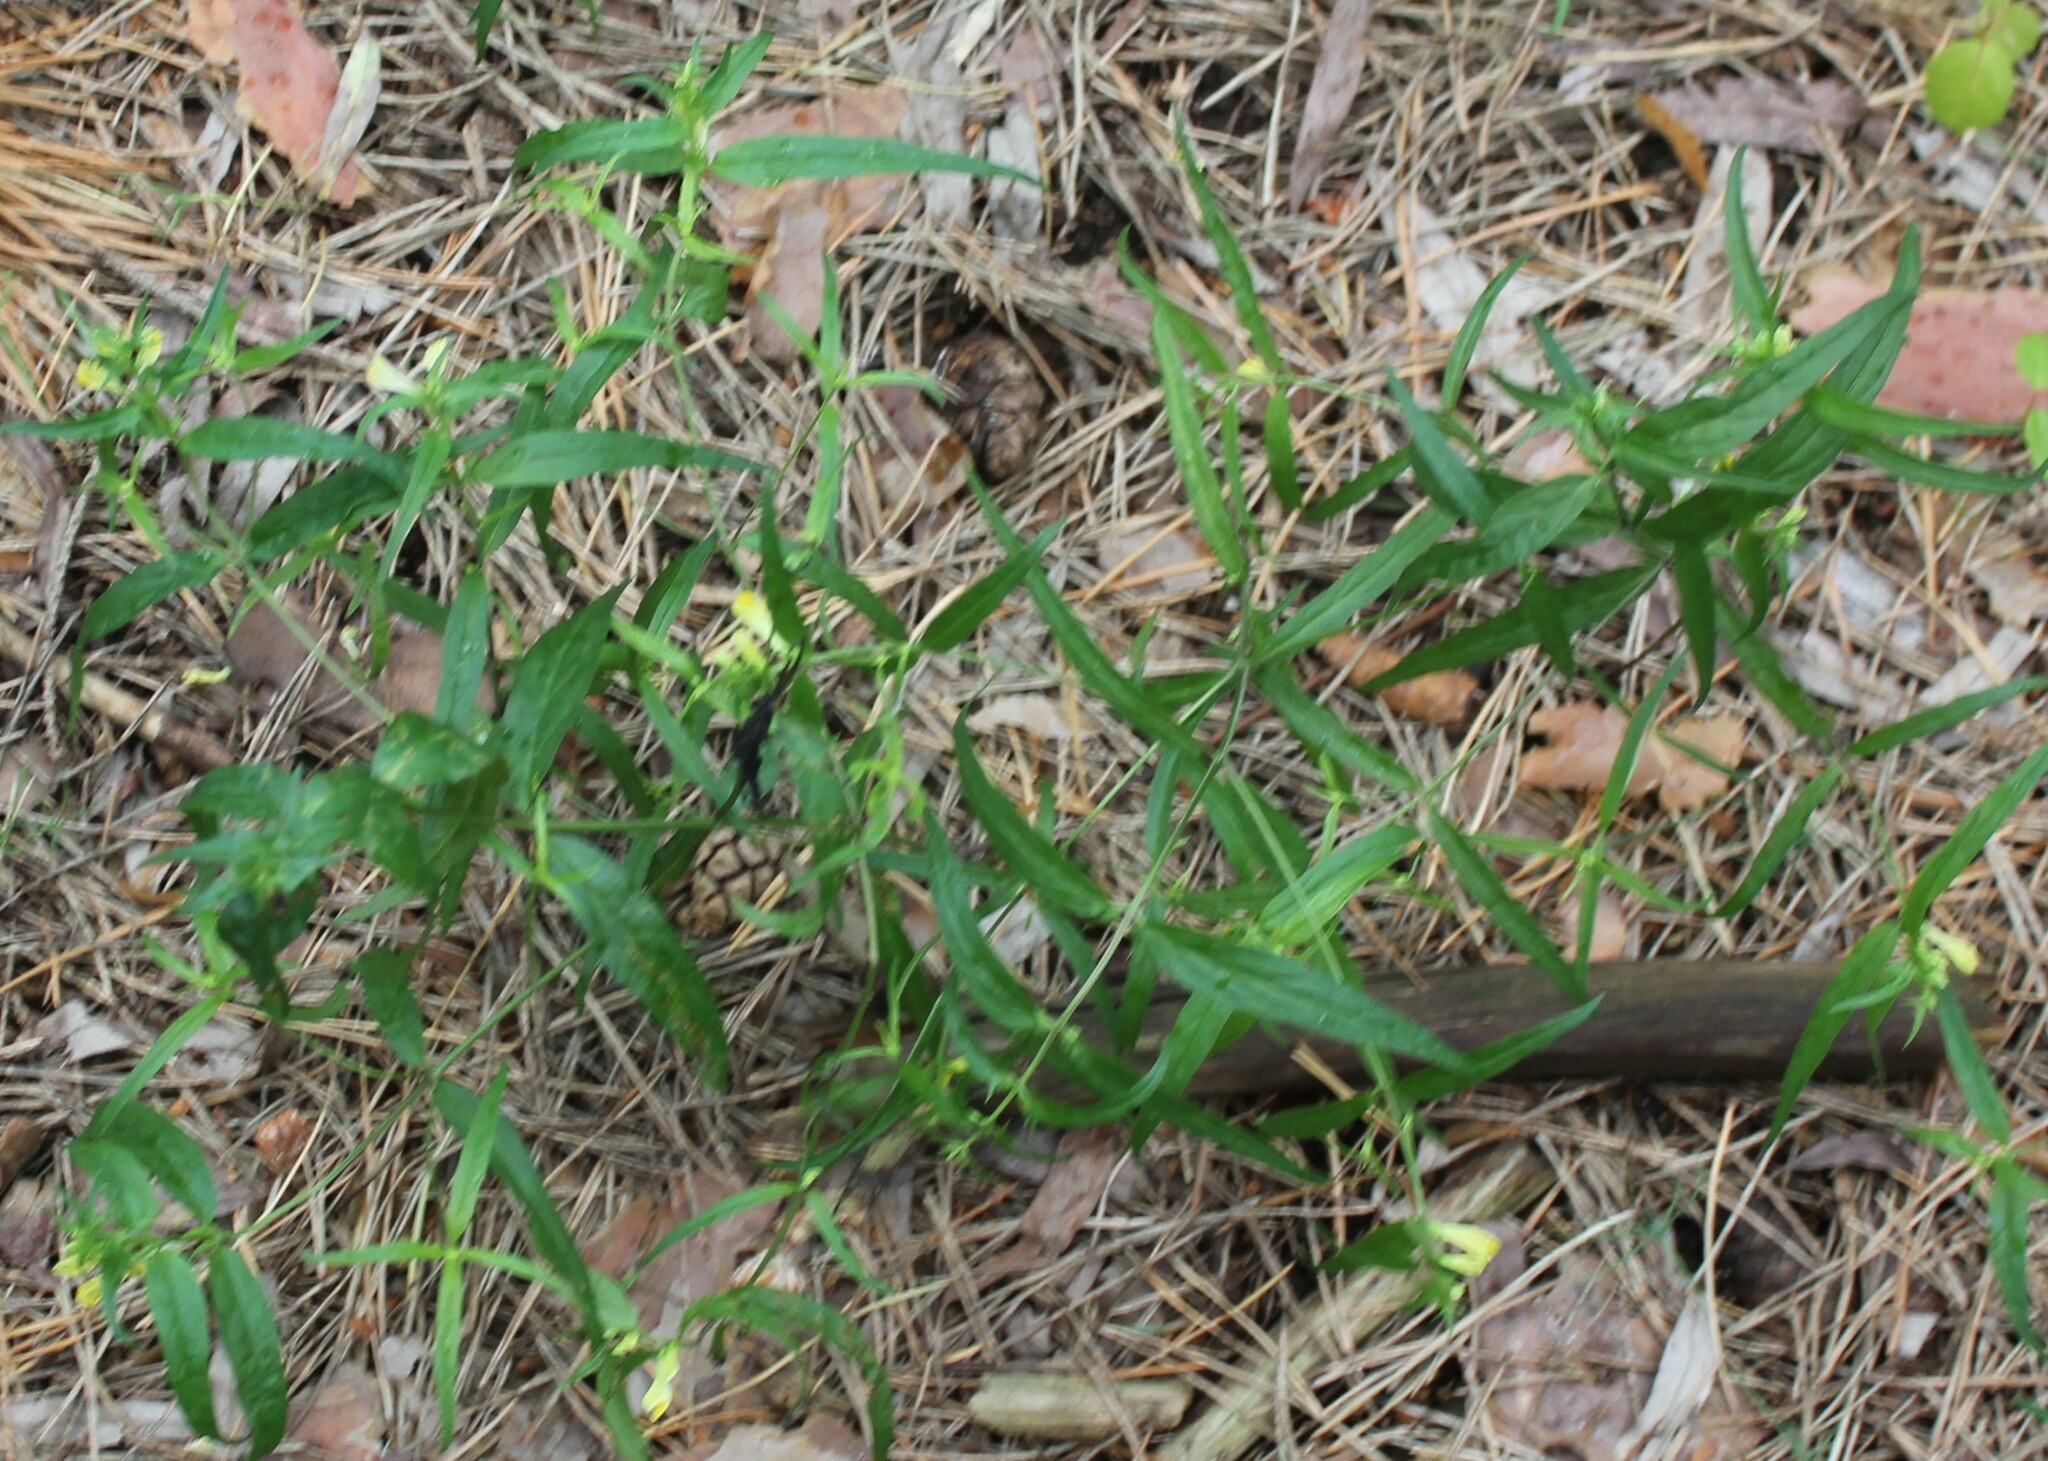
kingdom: Plantae
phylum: Tracheophyta
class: Magnoliopsida
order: Lamiales
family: Orobanchaceae
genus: Melampyrum
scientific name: Melampyrum pratense
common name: Common cow-wheat
